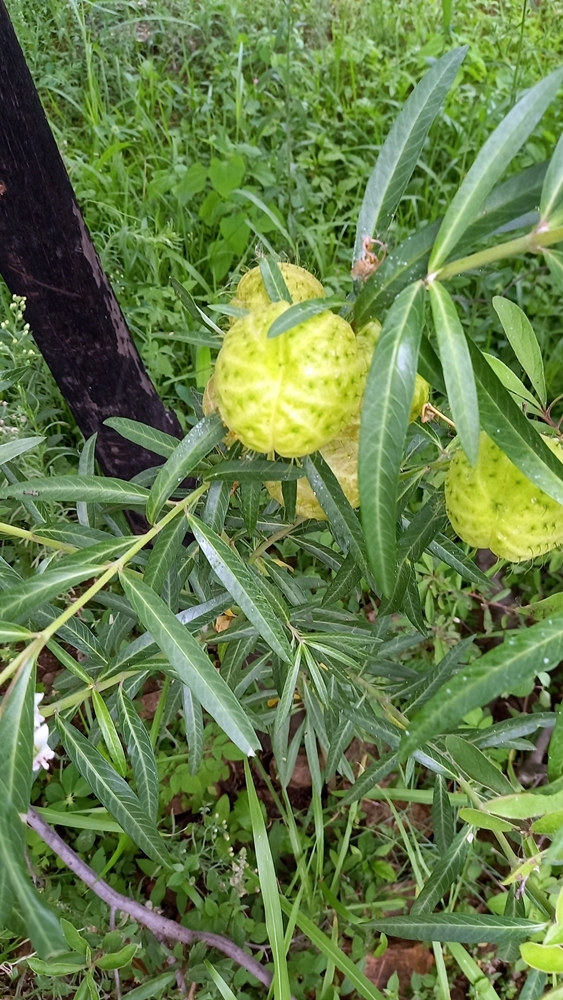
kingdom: Plantae
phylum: Tracheophyta
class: Magnoliopsida
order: Gentianales
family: Apocynaceae
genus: Gomphocarpus
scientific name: Gomphocarpus physocarpus
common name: Balloon cotton bush
